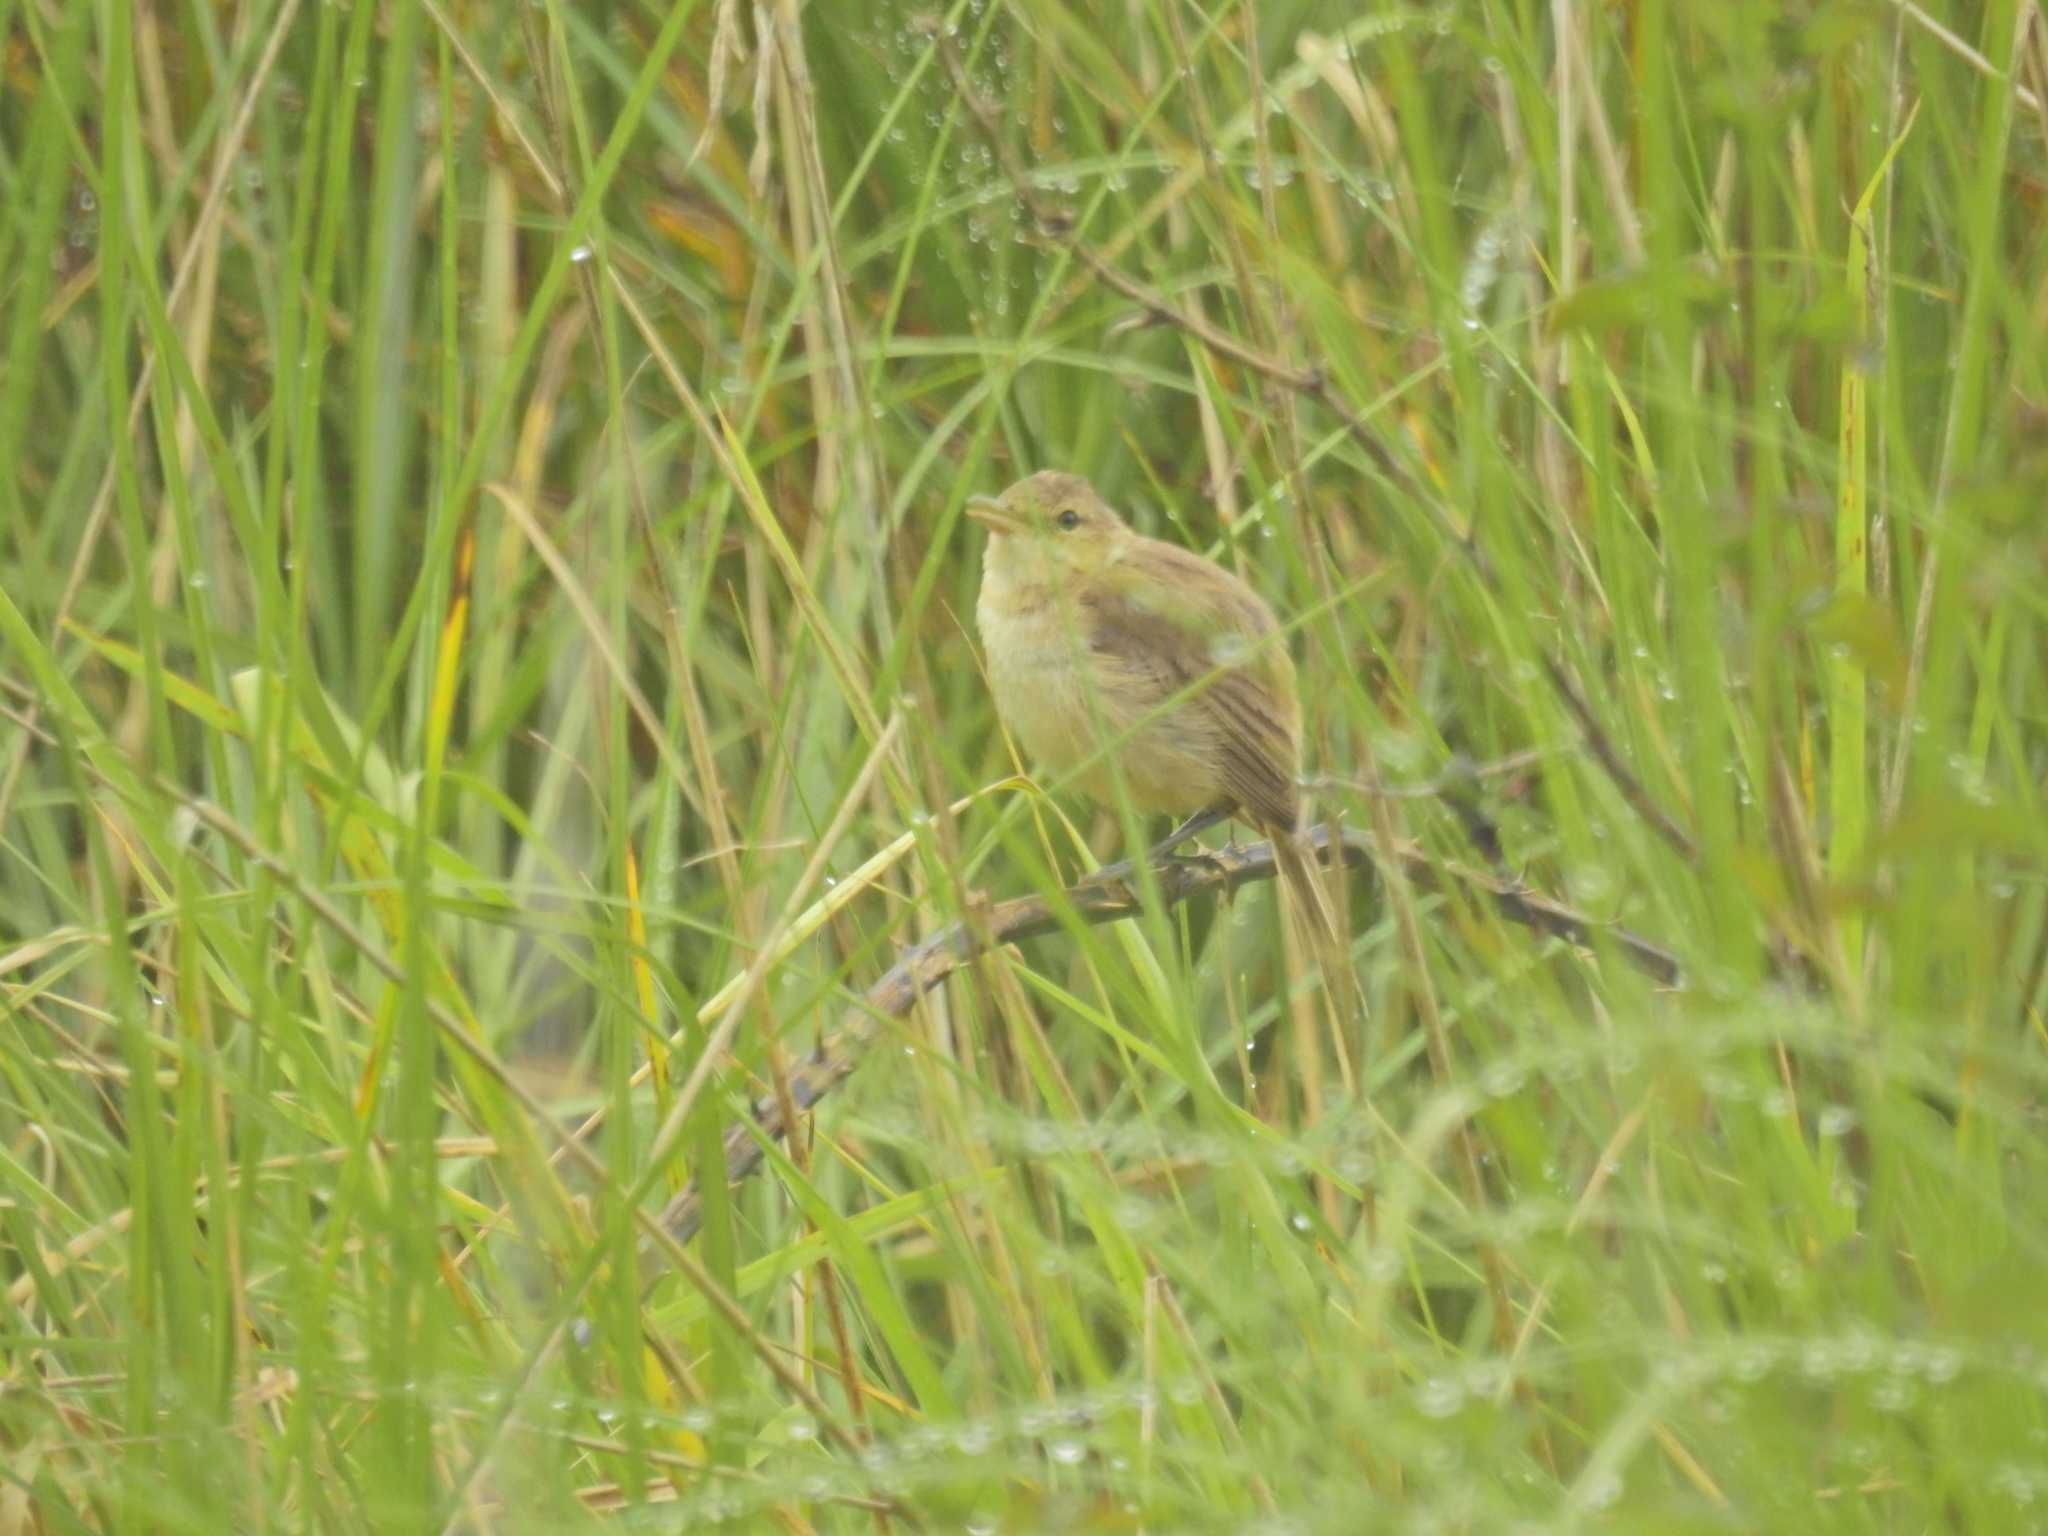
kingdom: Animalia
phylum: Chordata
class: Aves
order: Passeriformes
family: Acrocephalidae
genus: Acrocephalus
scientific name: Acrocephalus australis
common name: Australian reed warbler
